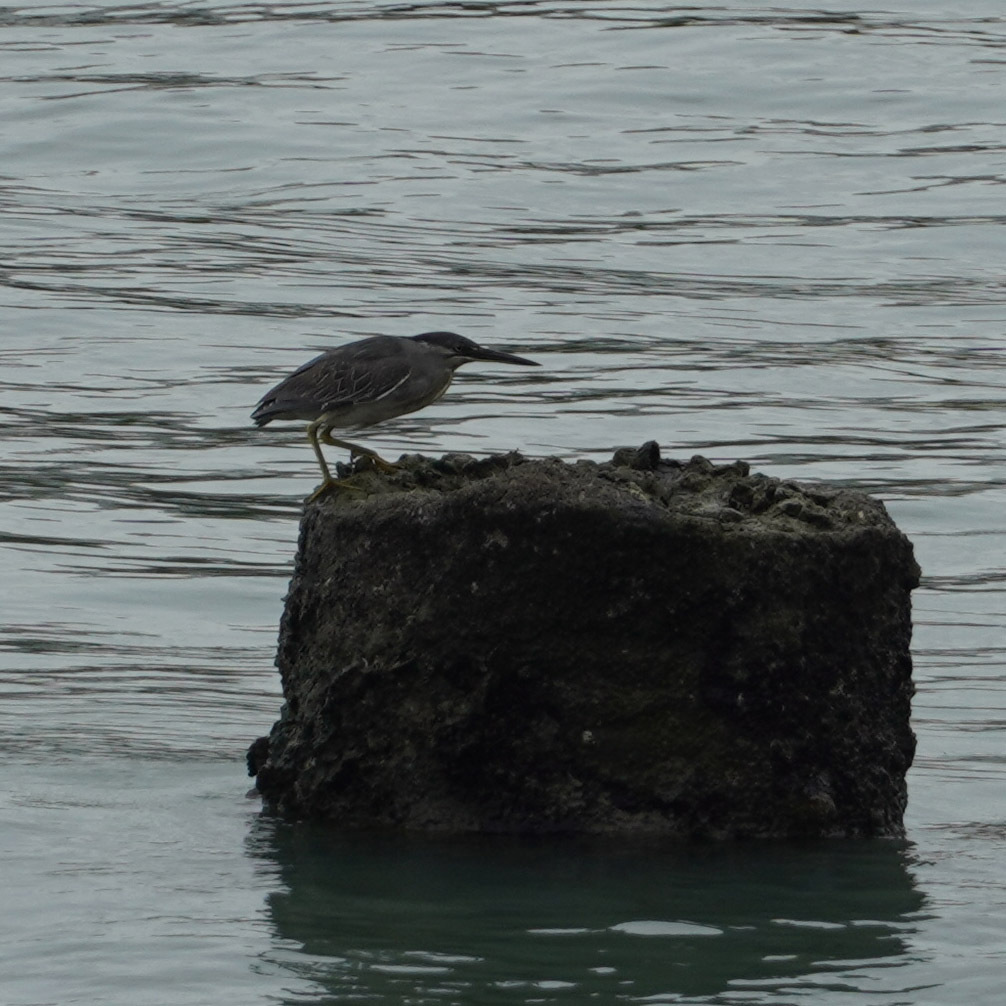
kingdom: Animalia
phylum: Chordata
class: Aves
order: Pelecaniformes
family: Ardeidae
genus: Butorides
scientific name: Butorides striata
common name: Striated heron
